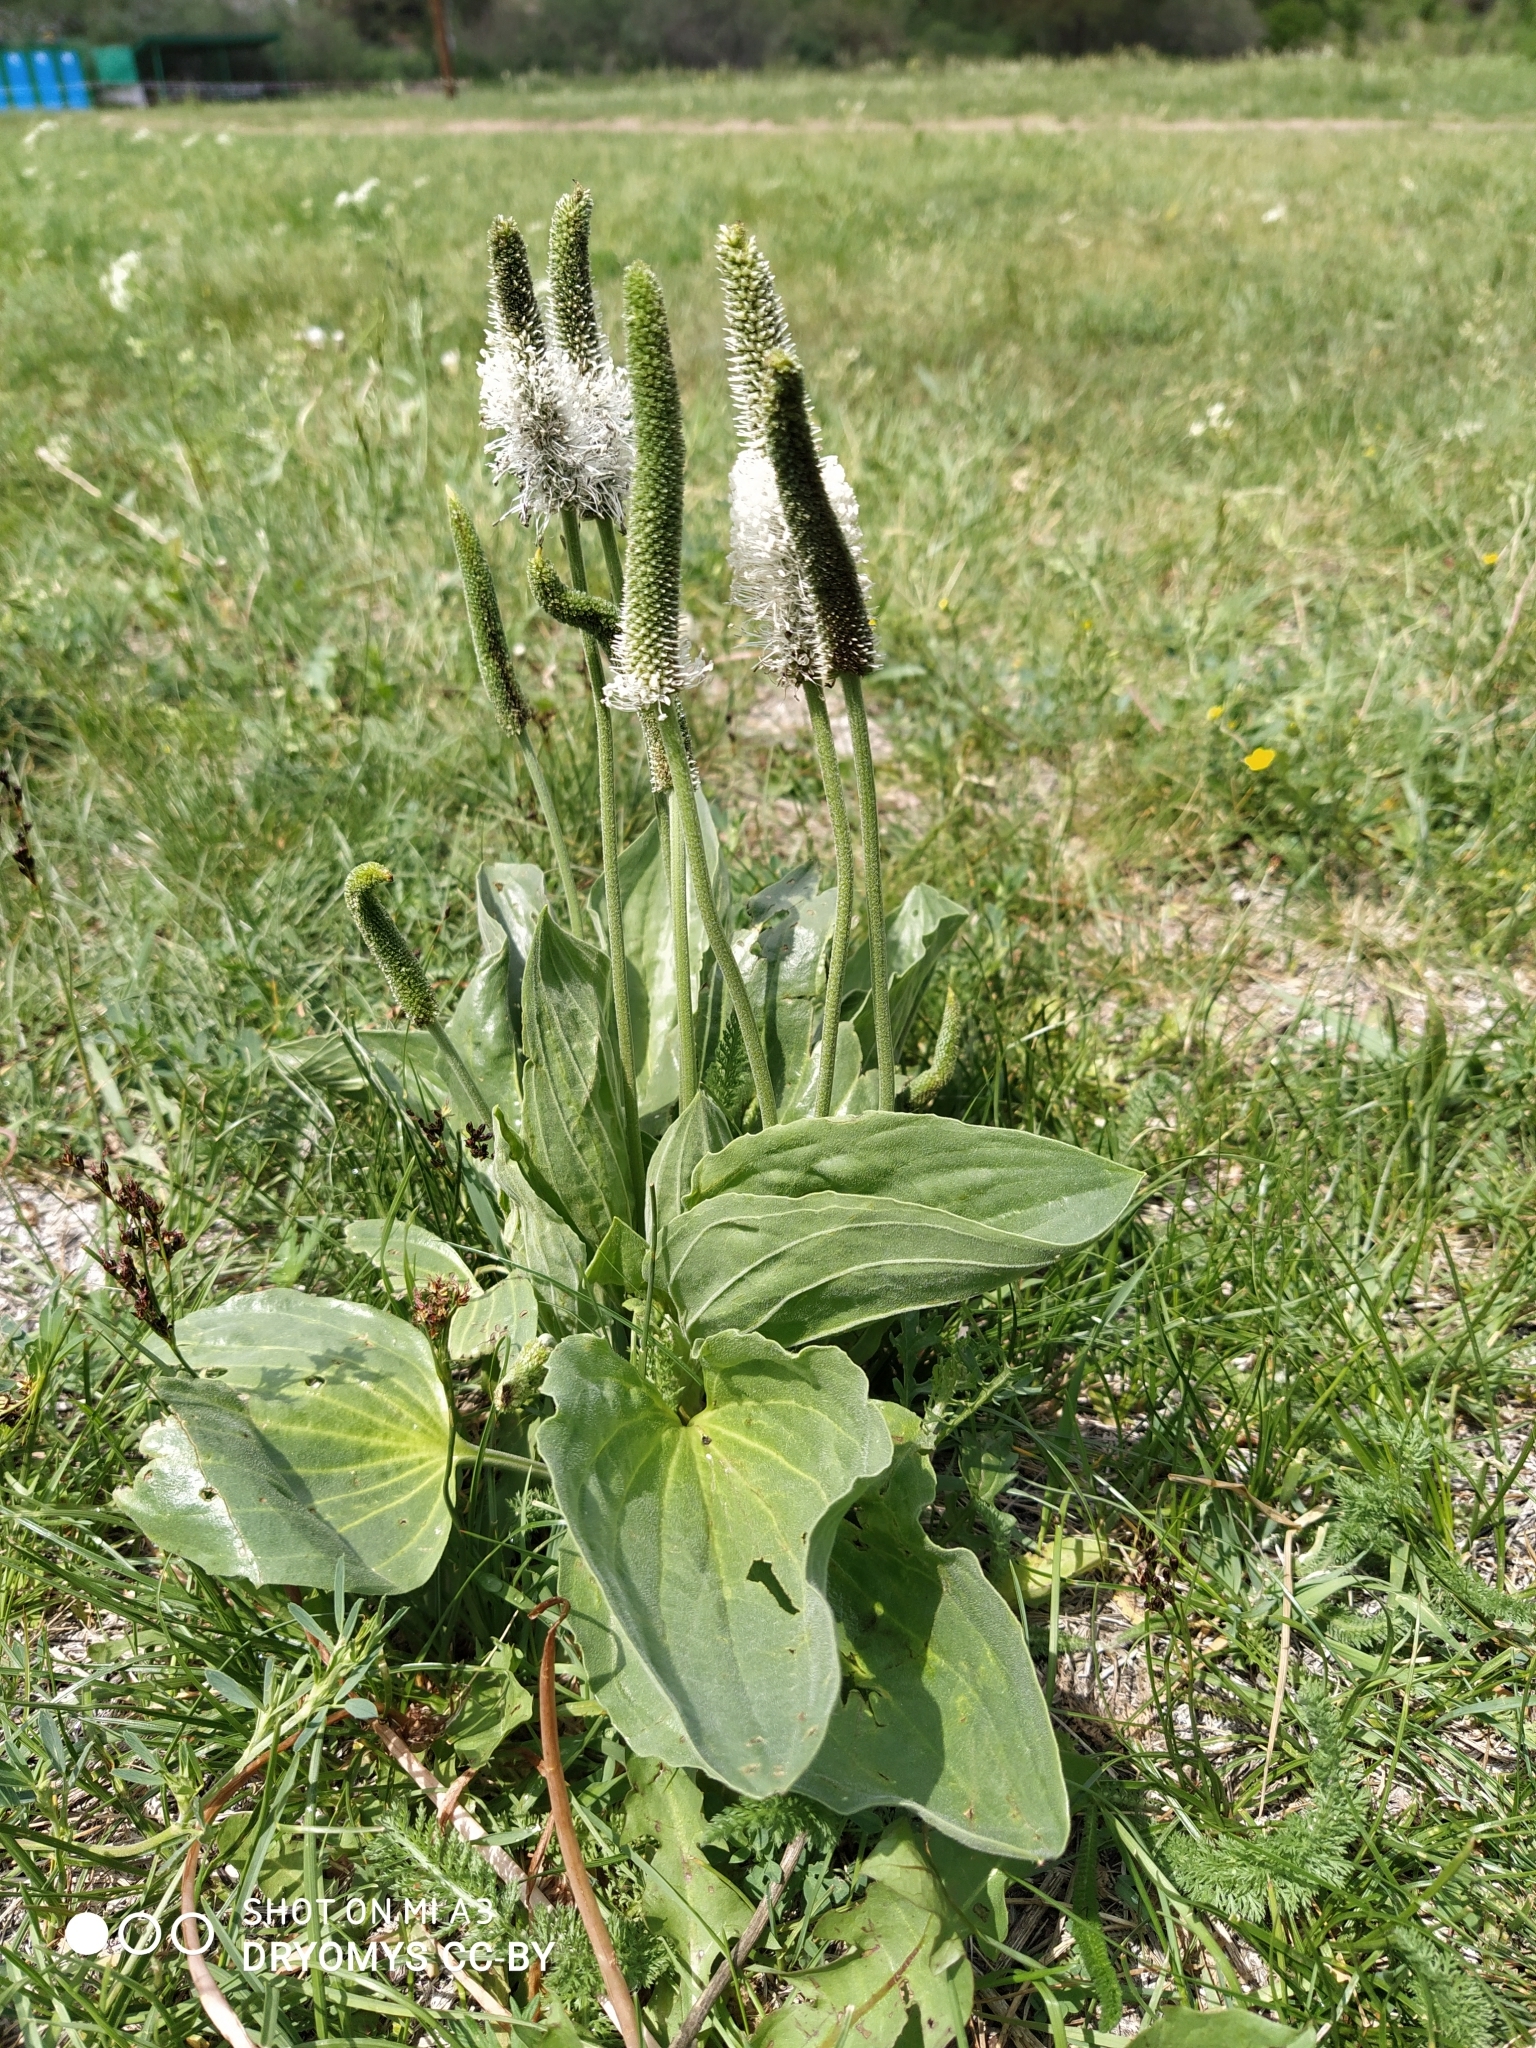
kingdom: Plantae
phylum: Tracheophyta
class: Magnoliopsida
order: Lamiales
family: Plantaginaceae
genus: Plantago
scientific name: Plantago media
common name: Hoary plantain
